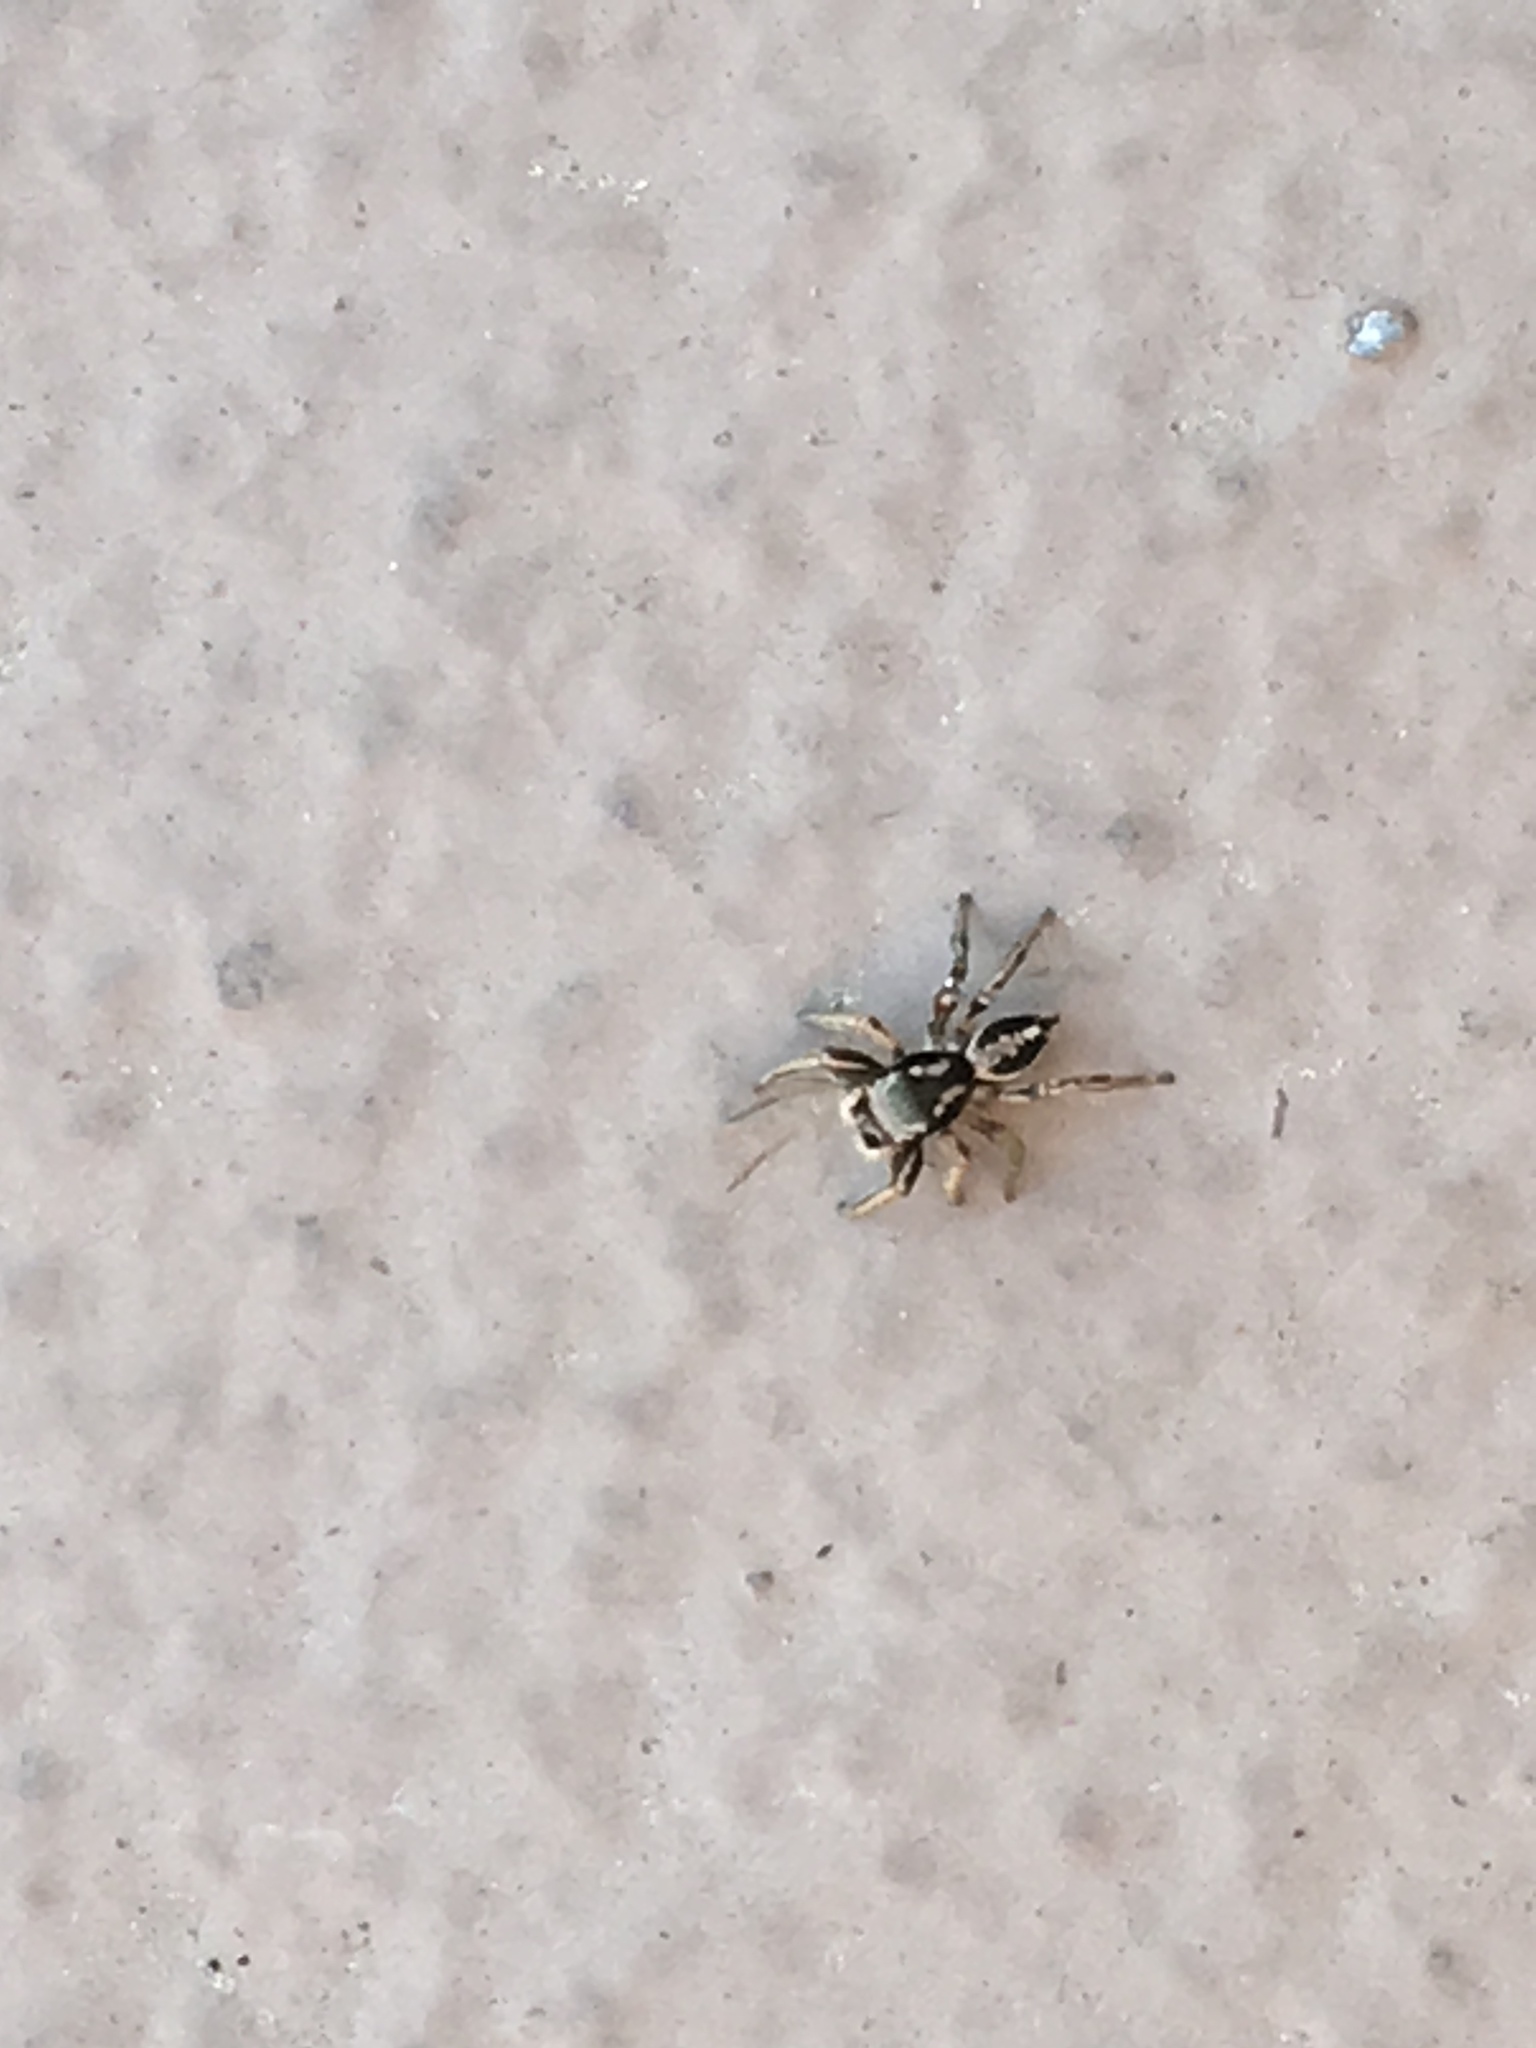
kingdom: Animalia
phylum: Arthropoda
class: Arachnida
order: Araneae
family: Salticidae
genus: Habronattus
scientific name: Habronattus pyrrithrix
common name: Jumping spider
